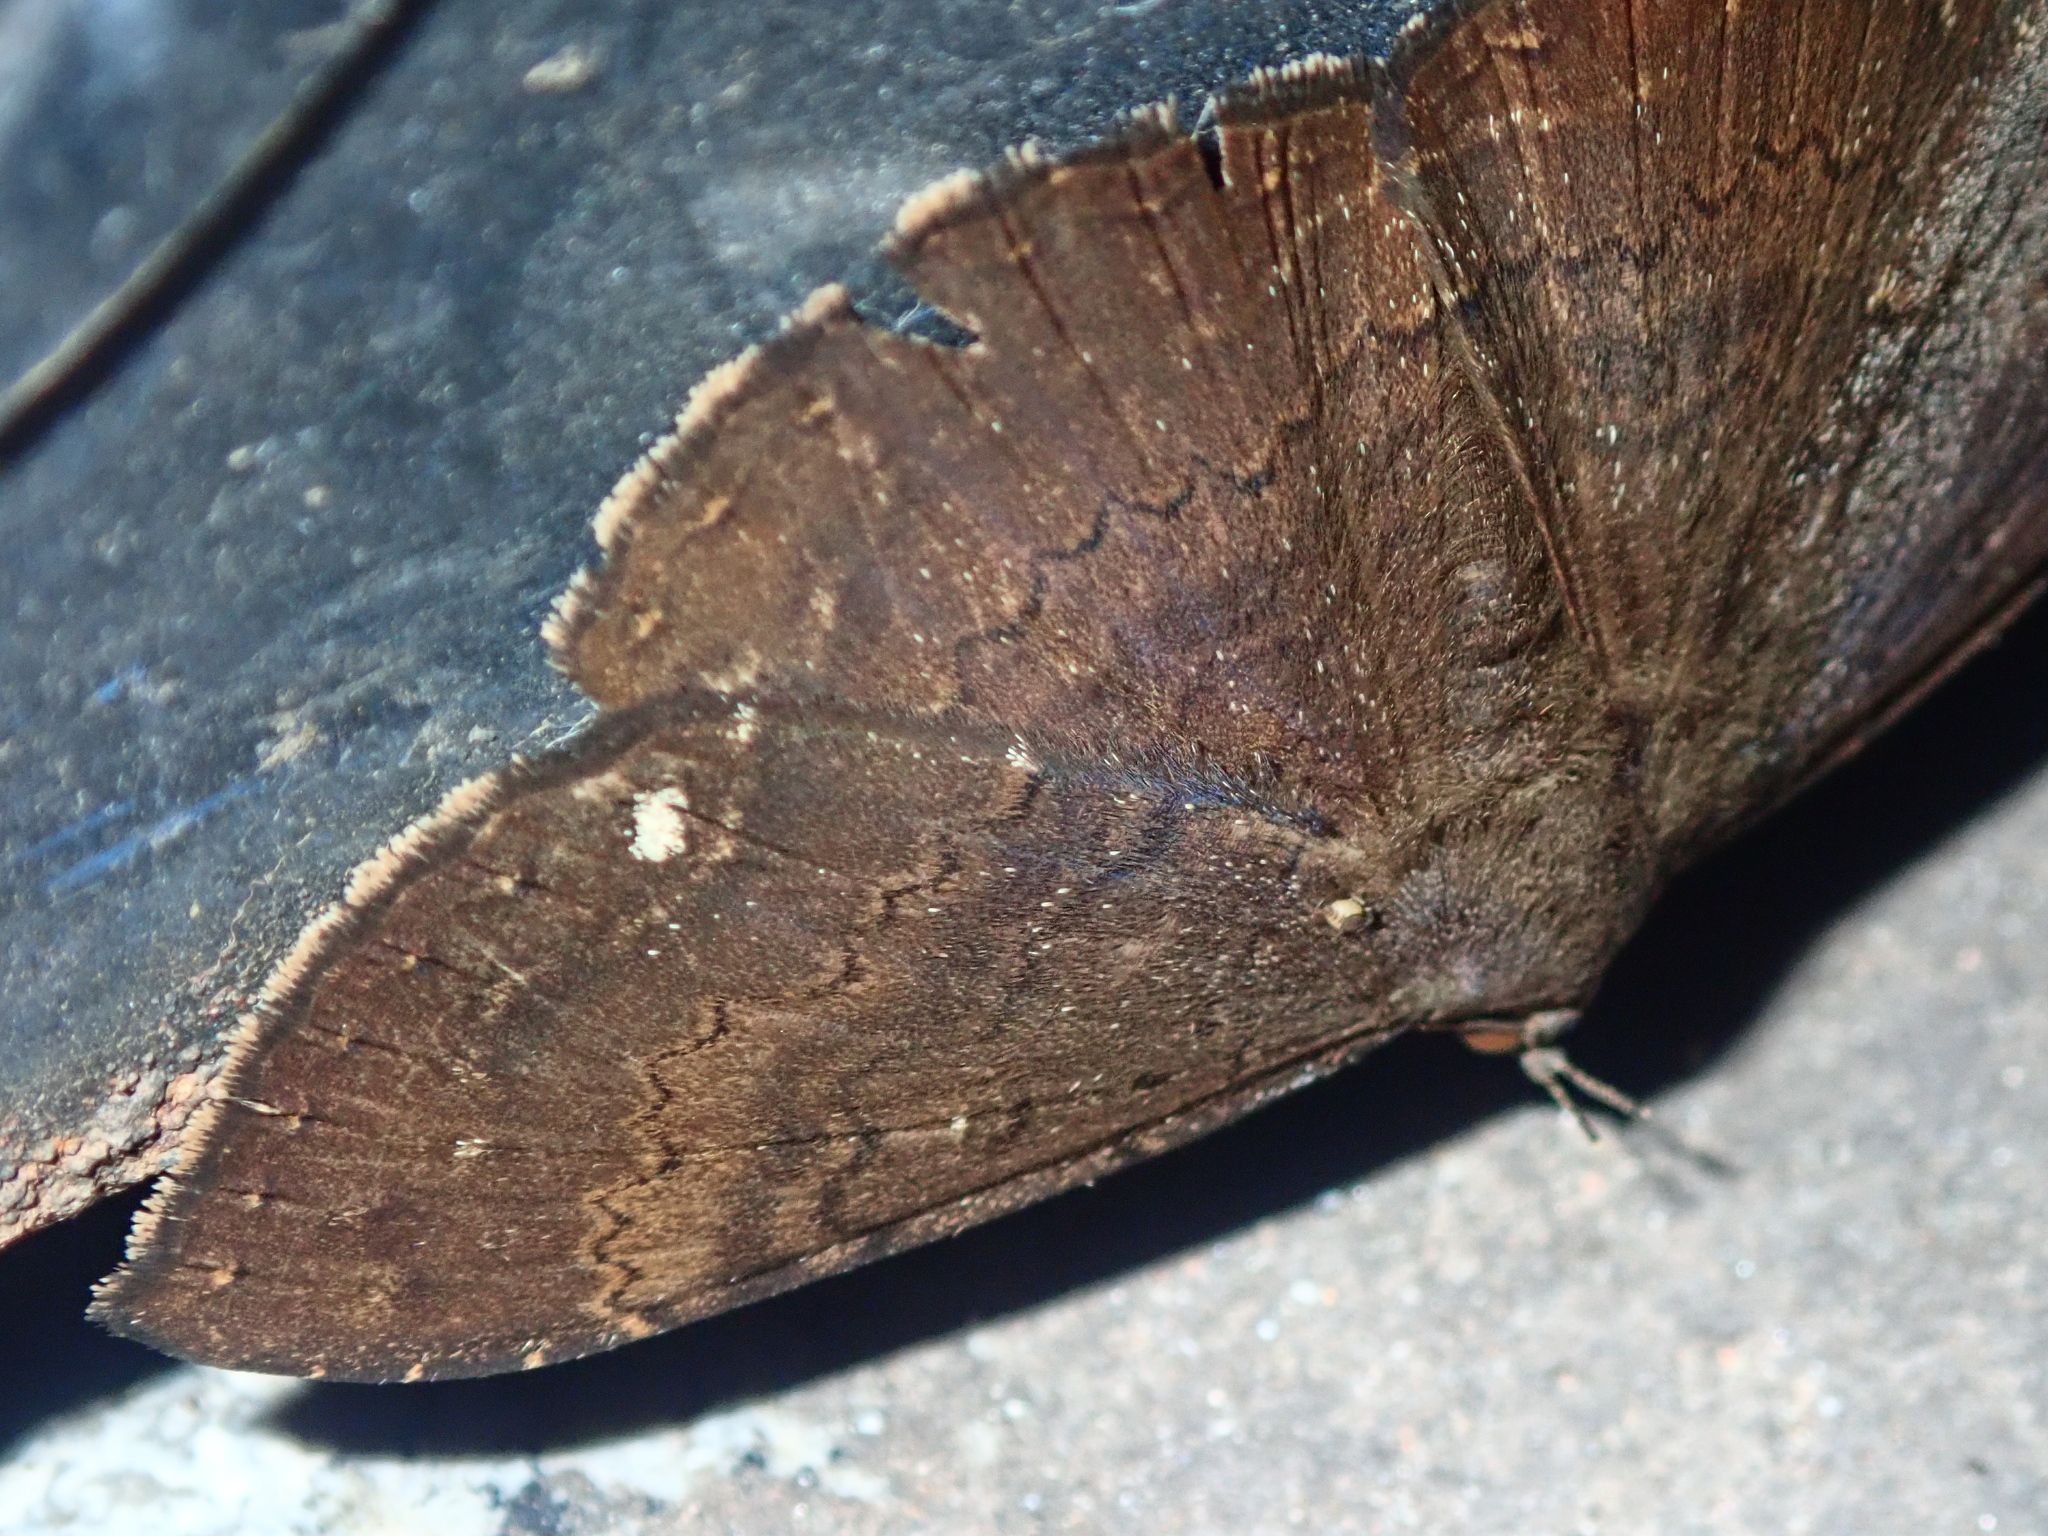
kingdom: Animalia
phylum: Arthropoda
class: Insecta
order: Lepidoptera
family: Erebidae
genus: Hemeroblemma
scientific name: Hemeroblemma malitiosa
